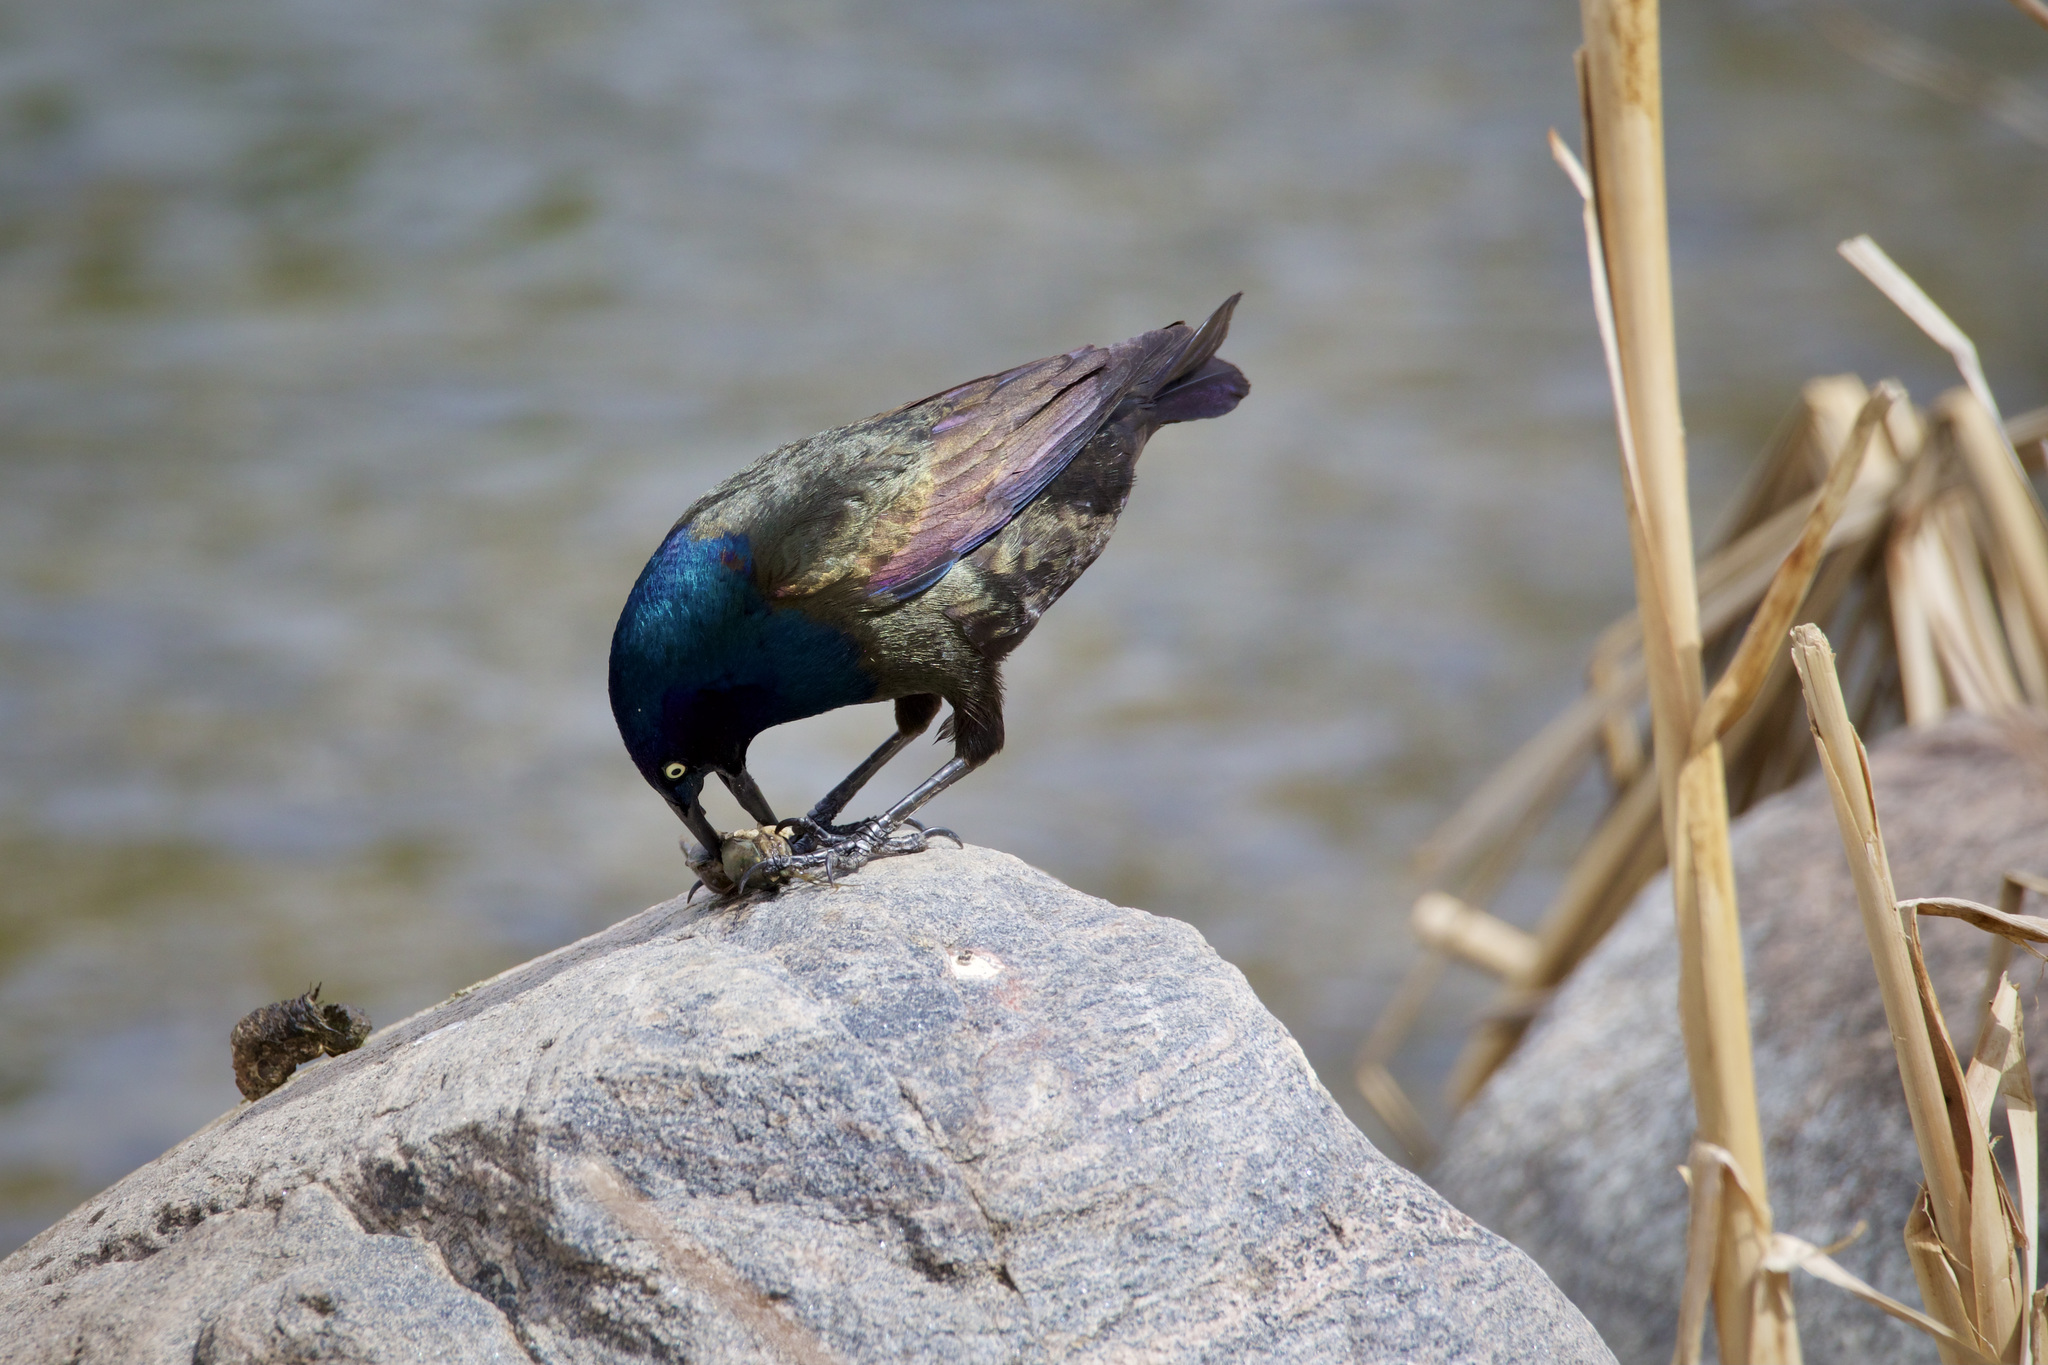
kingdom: Animalia
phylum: Chordata
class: Aves
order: Passeriformes
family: Icteridae
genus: Quiscalus
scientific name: Quiscalus quiscula
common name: Common grackle
